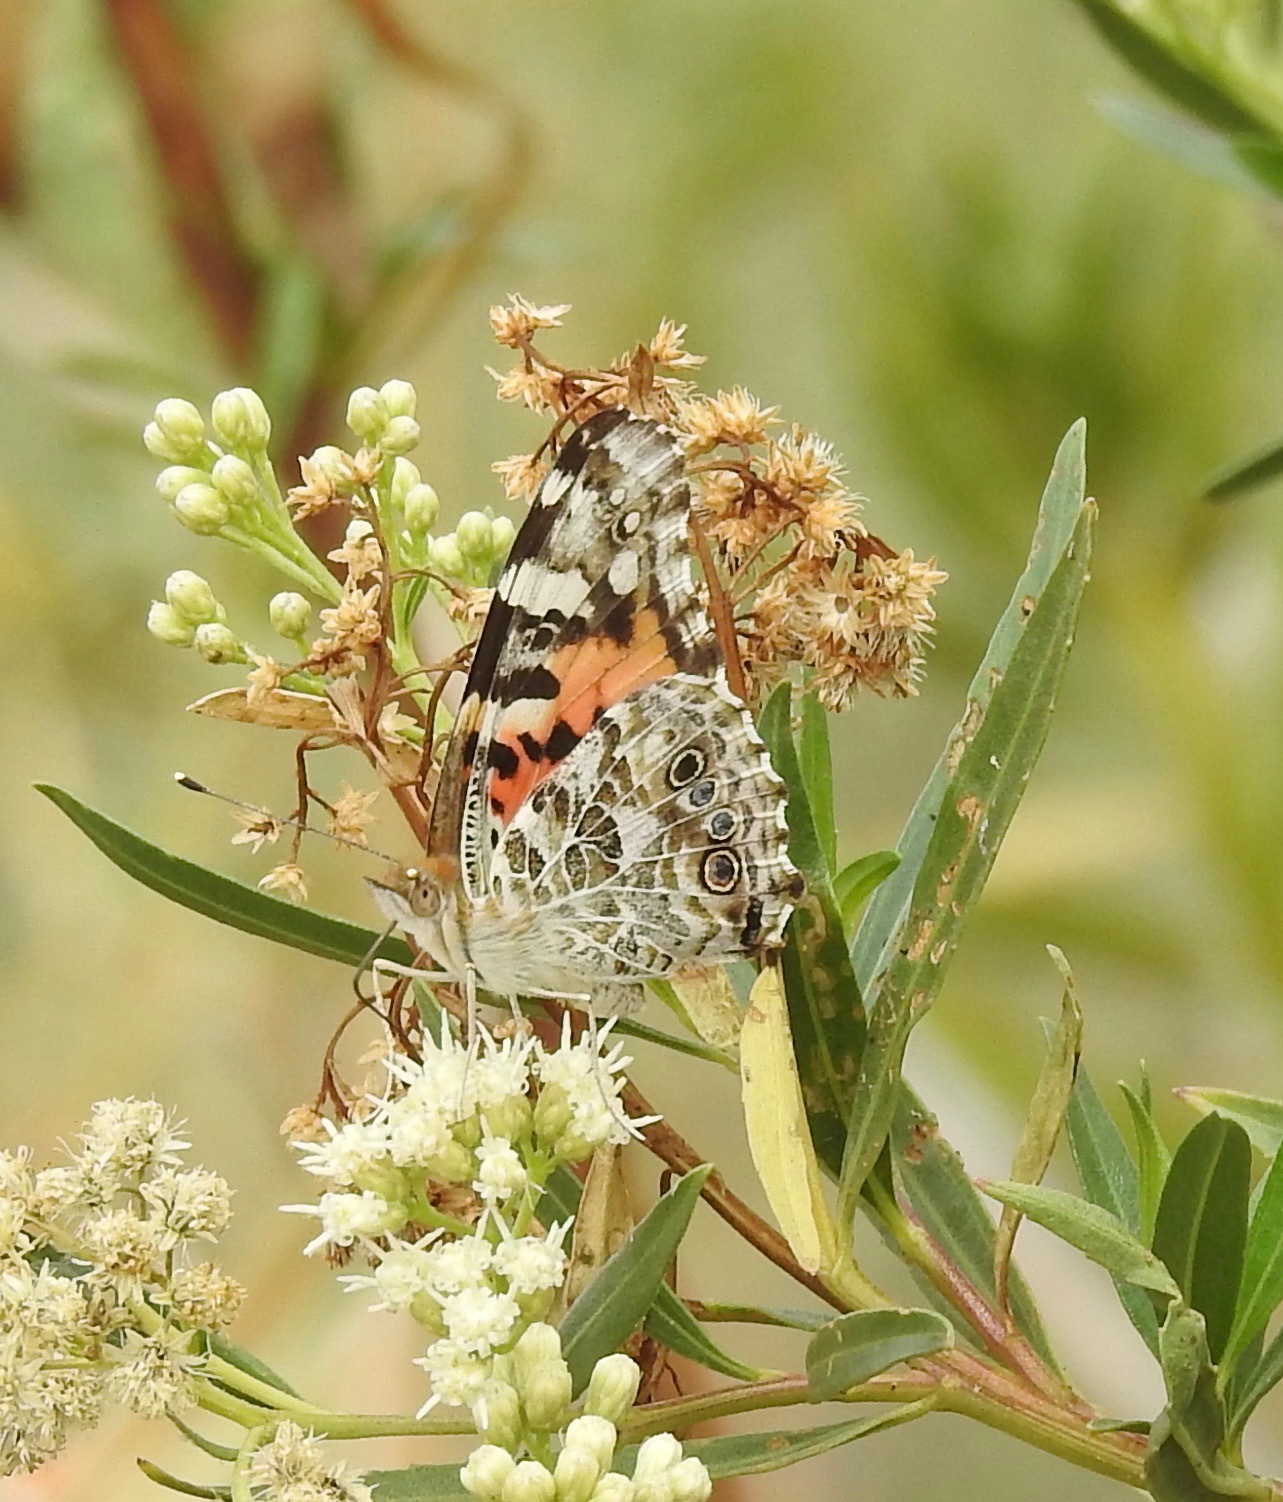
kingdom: Animalia
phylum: Arthropoda
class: Insecta
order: Lepidoptera
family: Nymphalidae
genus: Vanessa
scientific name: Vanessa cardui
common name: Painted lady
